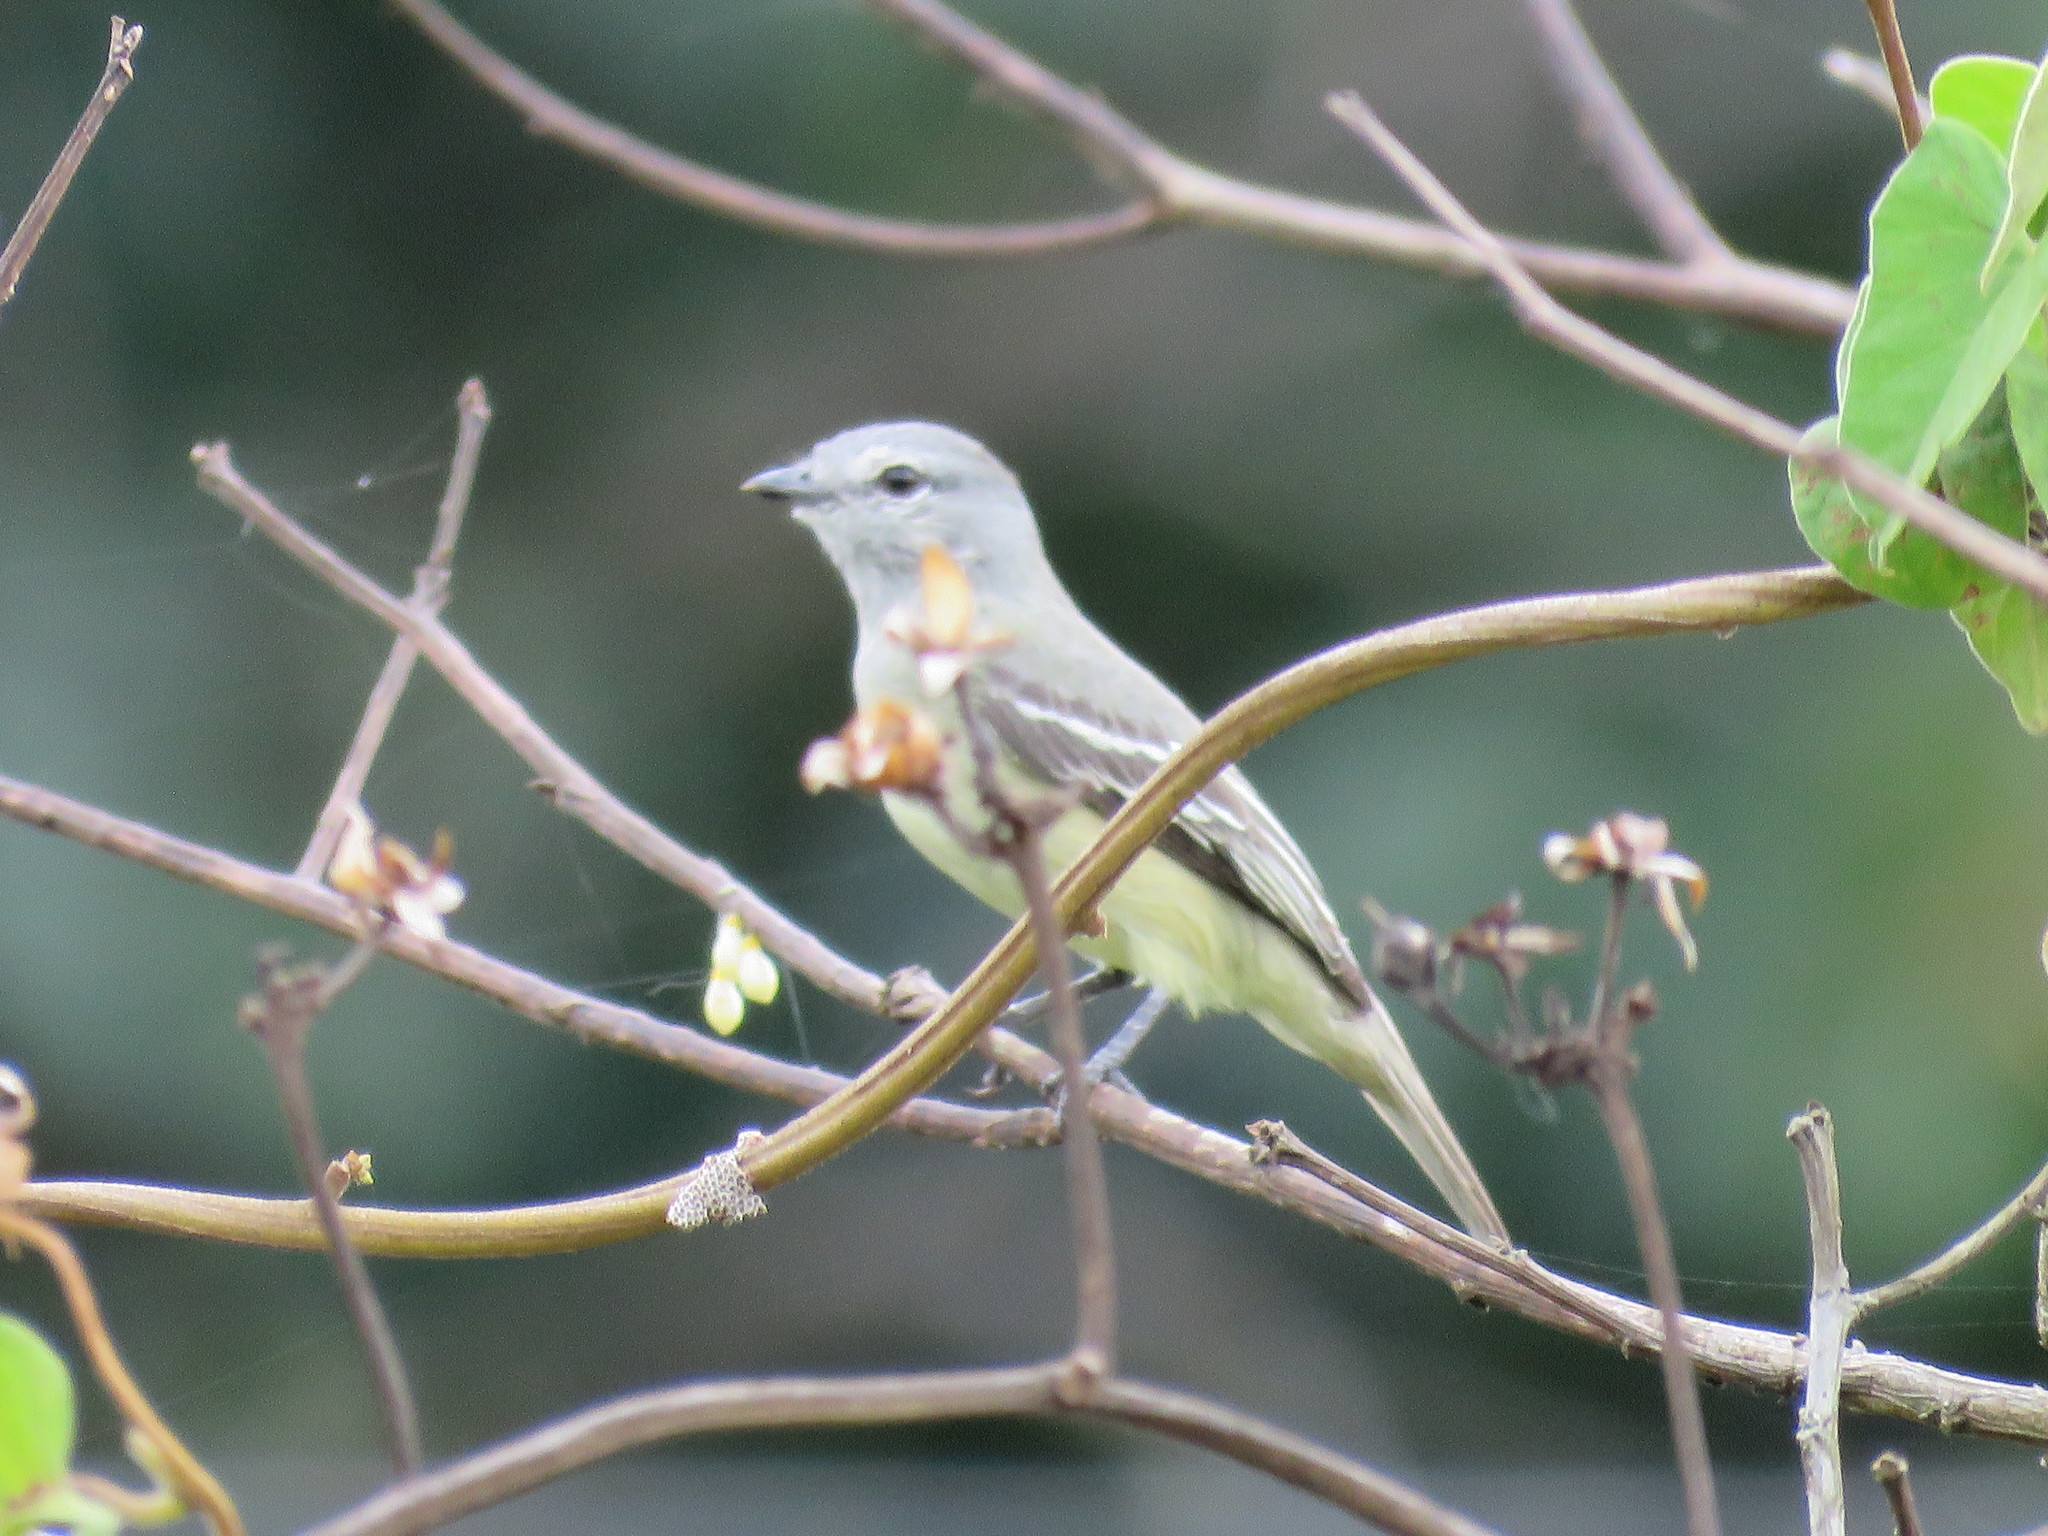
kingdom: Animalia
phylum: Chordata
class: Aves
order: Passeriformes
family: Tyrannidae
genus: Tyrannulus
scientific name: Tyrannulus elatus
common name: Yellow-crowned tyrannulet
